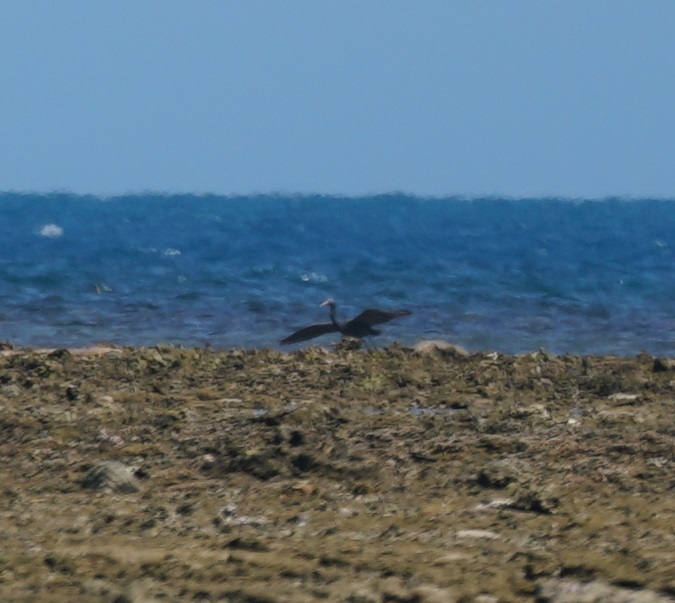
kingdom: Animalia
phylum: Chordata
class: Aves
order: Pelecaniformes
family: Ardeidae
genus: Egretta
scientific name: Egretta sacra
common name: Pacific reef heron
